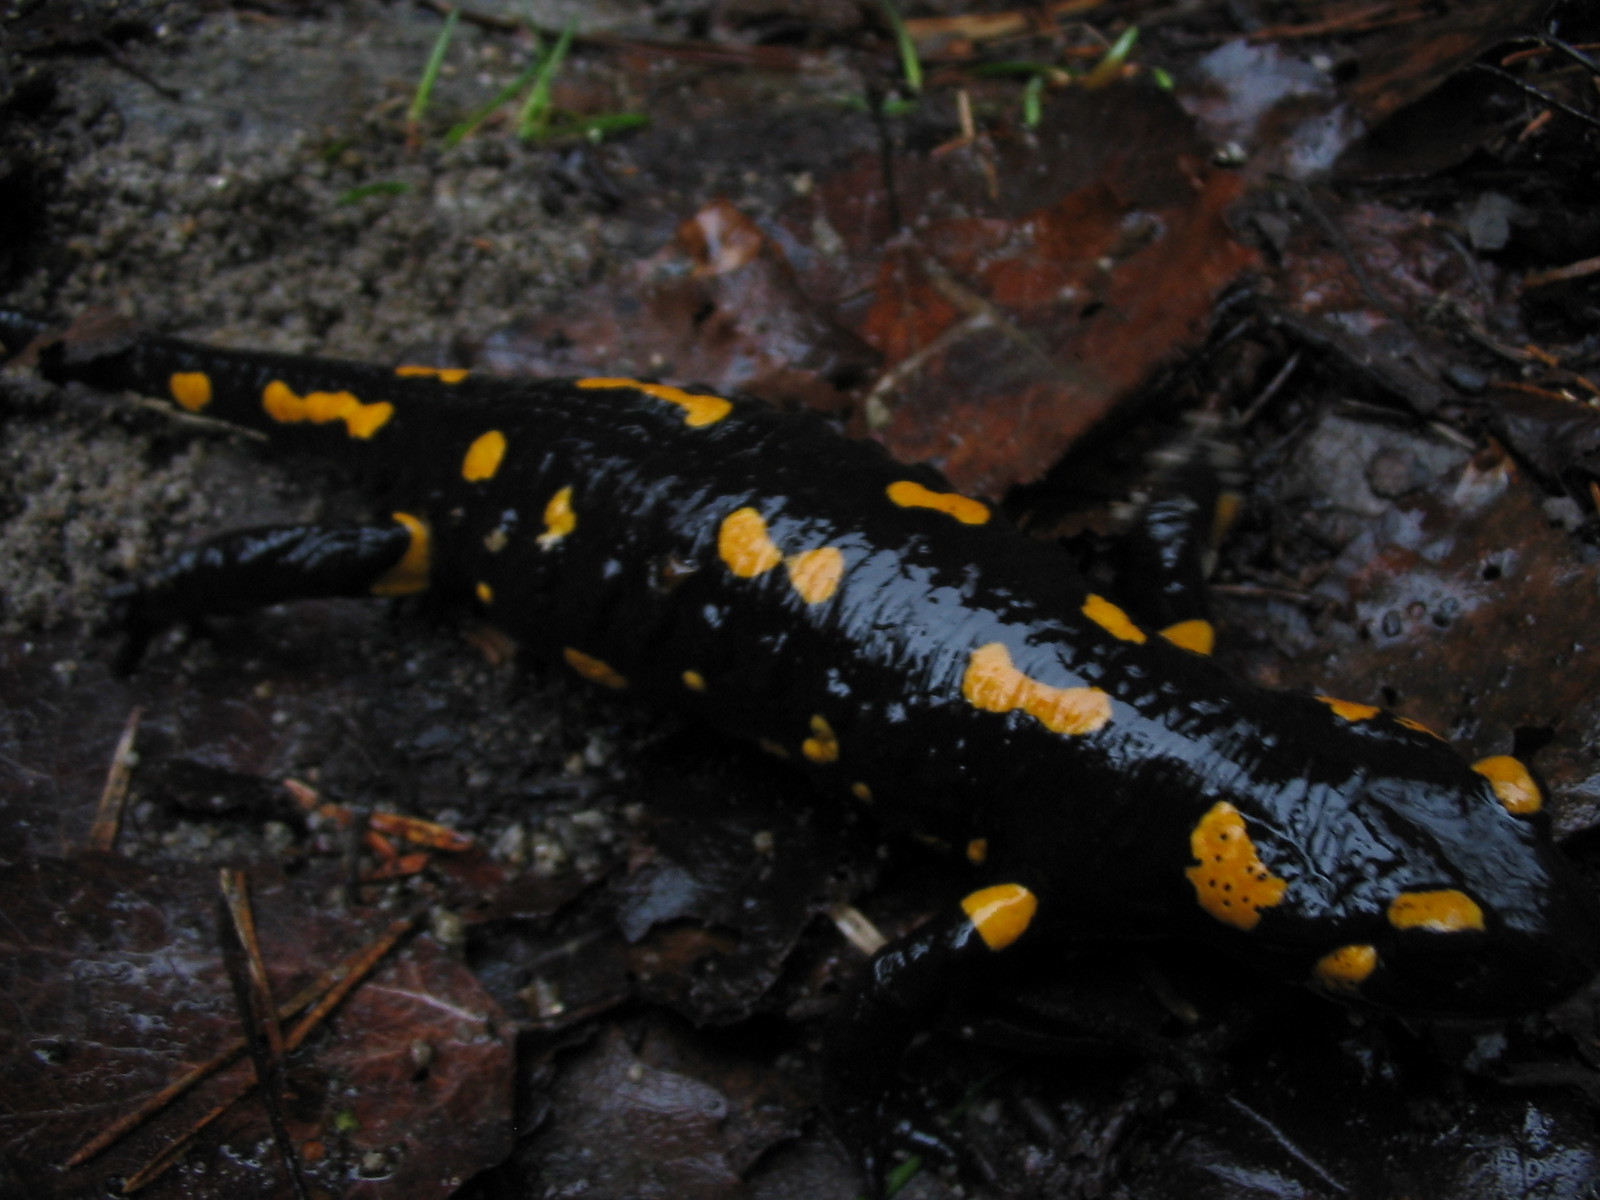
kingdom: Animalia
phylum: Chordata
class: Amphibia
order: Caudata
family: Salamandridae
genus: Salamandra
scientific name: Salamandra salamandra
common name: Fire salamander
